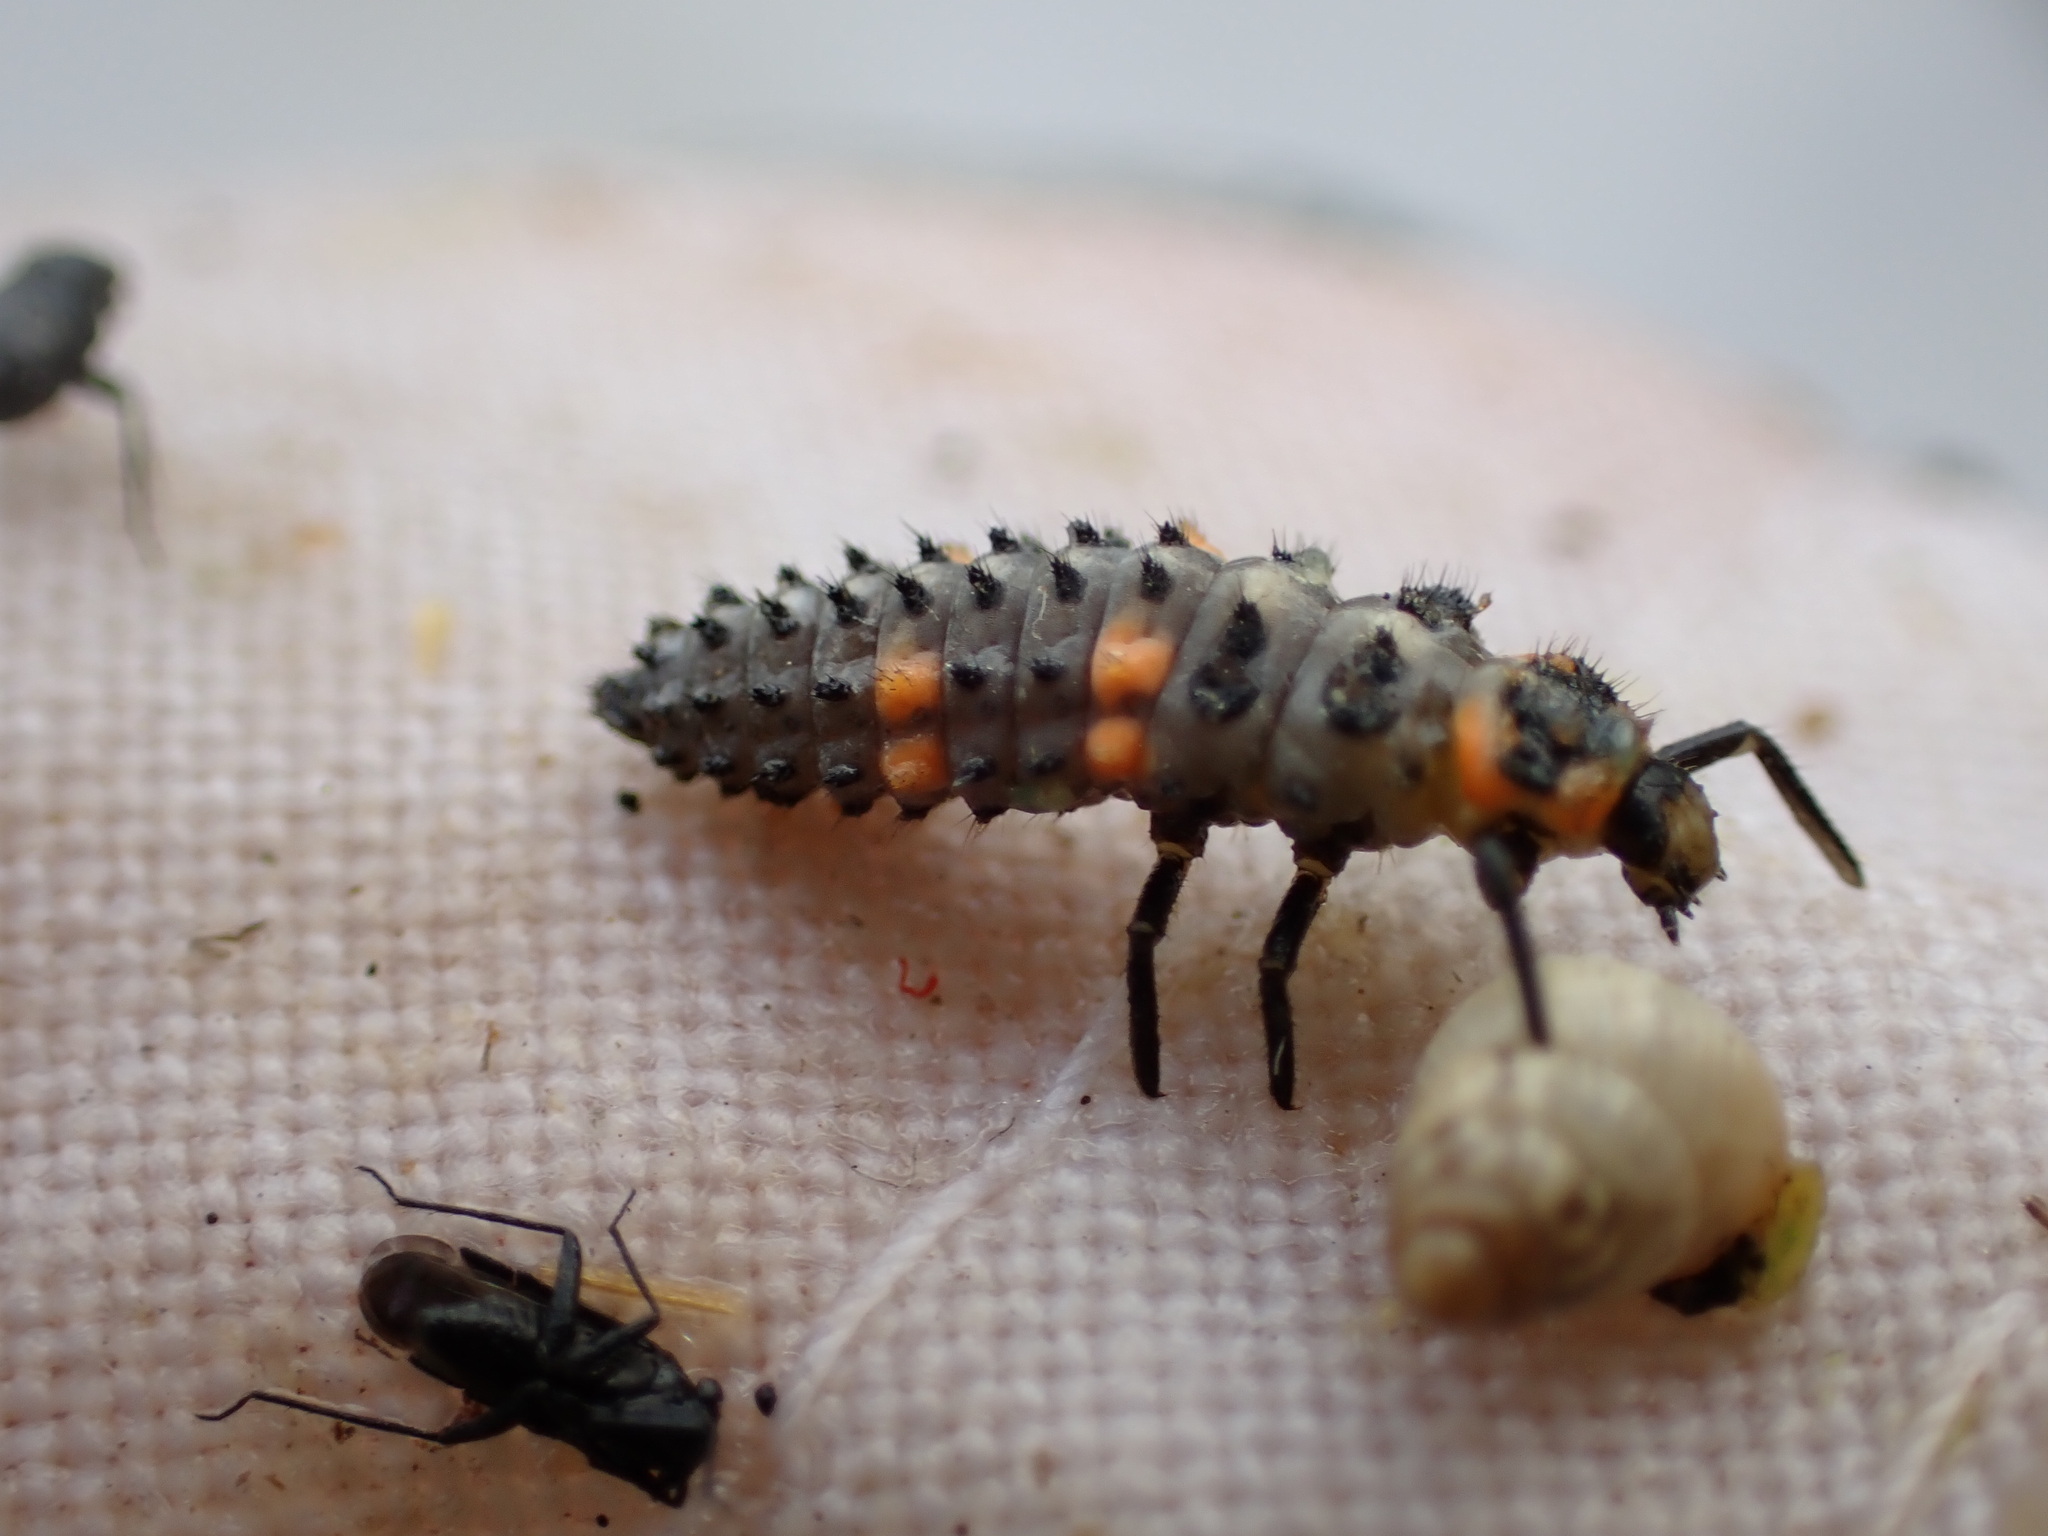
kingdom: Animalia
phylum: Arthropoda
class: Insecta
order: Coleoptera
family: Coccinellidae
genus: Coccinella
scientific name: Coccinella septempunctata
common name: Sevenspotted lady beetle
